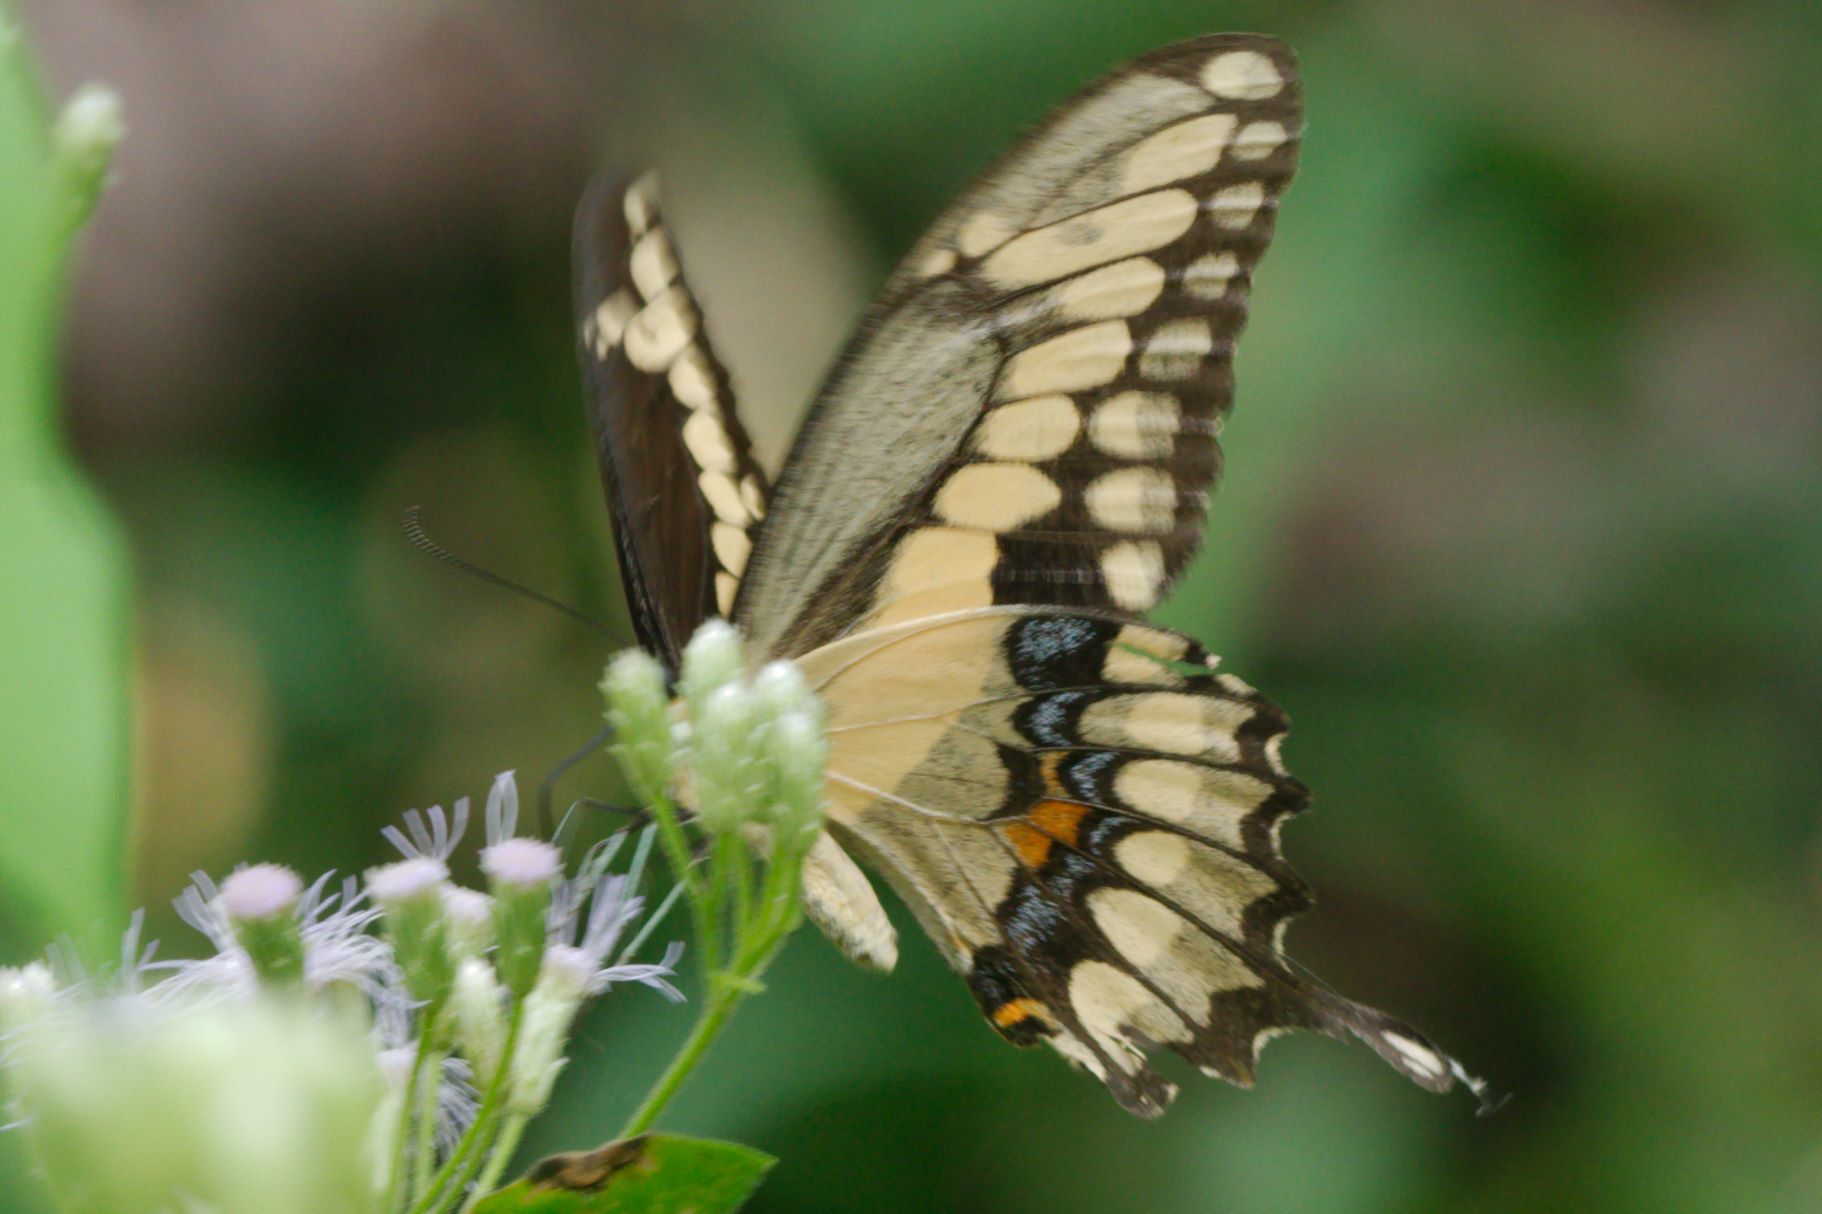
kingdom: Animalia
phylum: Arthropoda
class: Insecta
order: Lepidoptera
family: Papilionidae
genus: Papilio
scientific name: Papilio cresphontes
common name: Giant swallowtail
